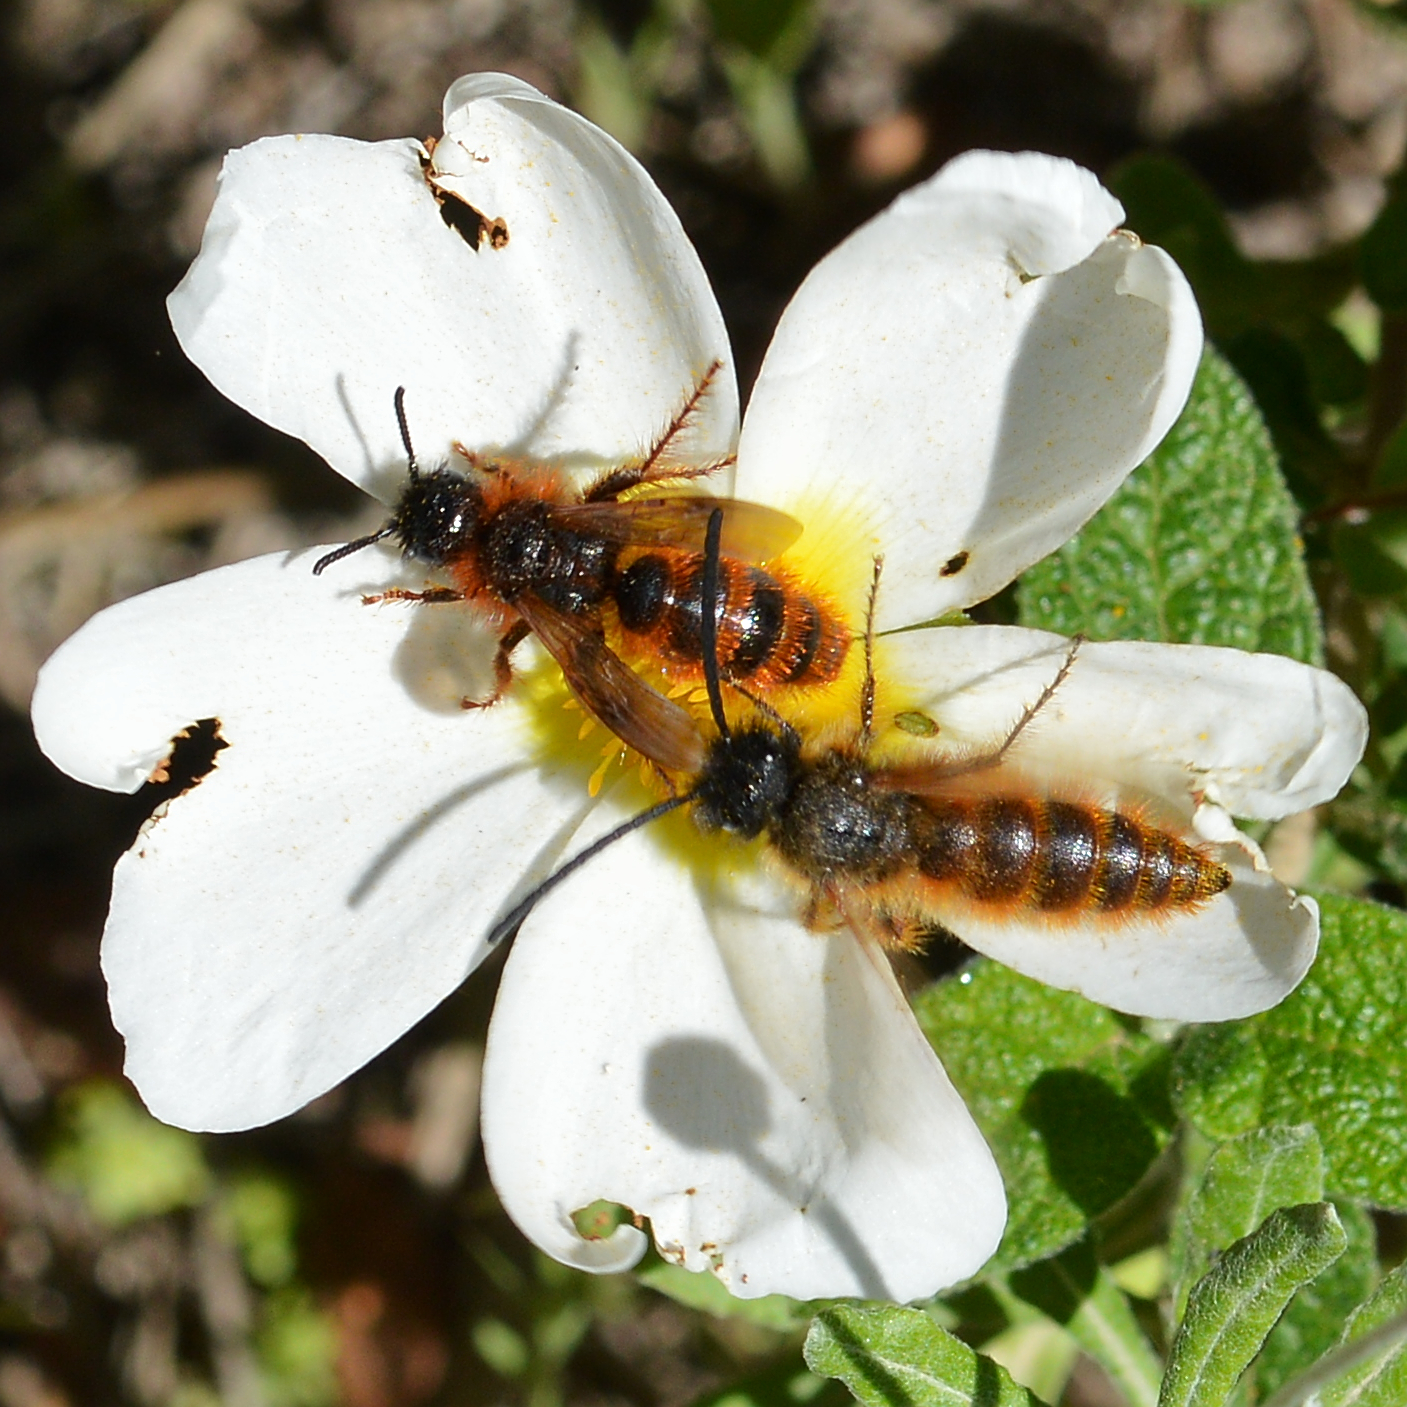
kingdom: Animalia
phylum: Arthropoda
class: Insecta
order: Hymenoptera
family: Scoliidae
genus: Dasyscolia
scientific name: Dasyscolia ciliata
